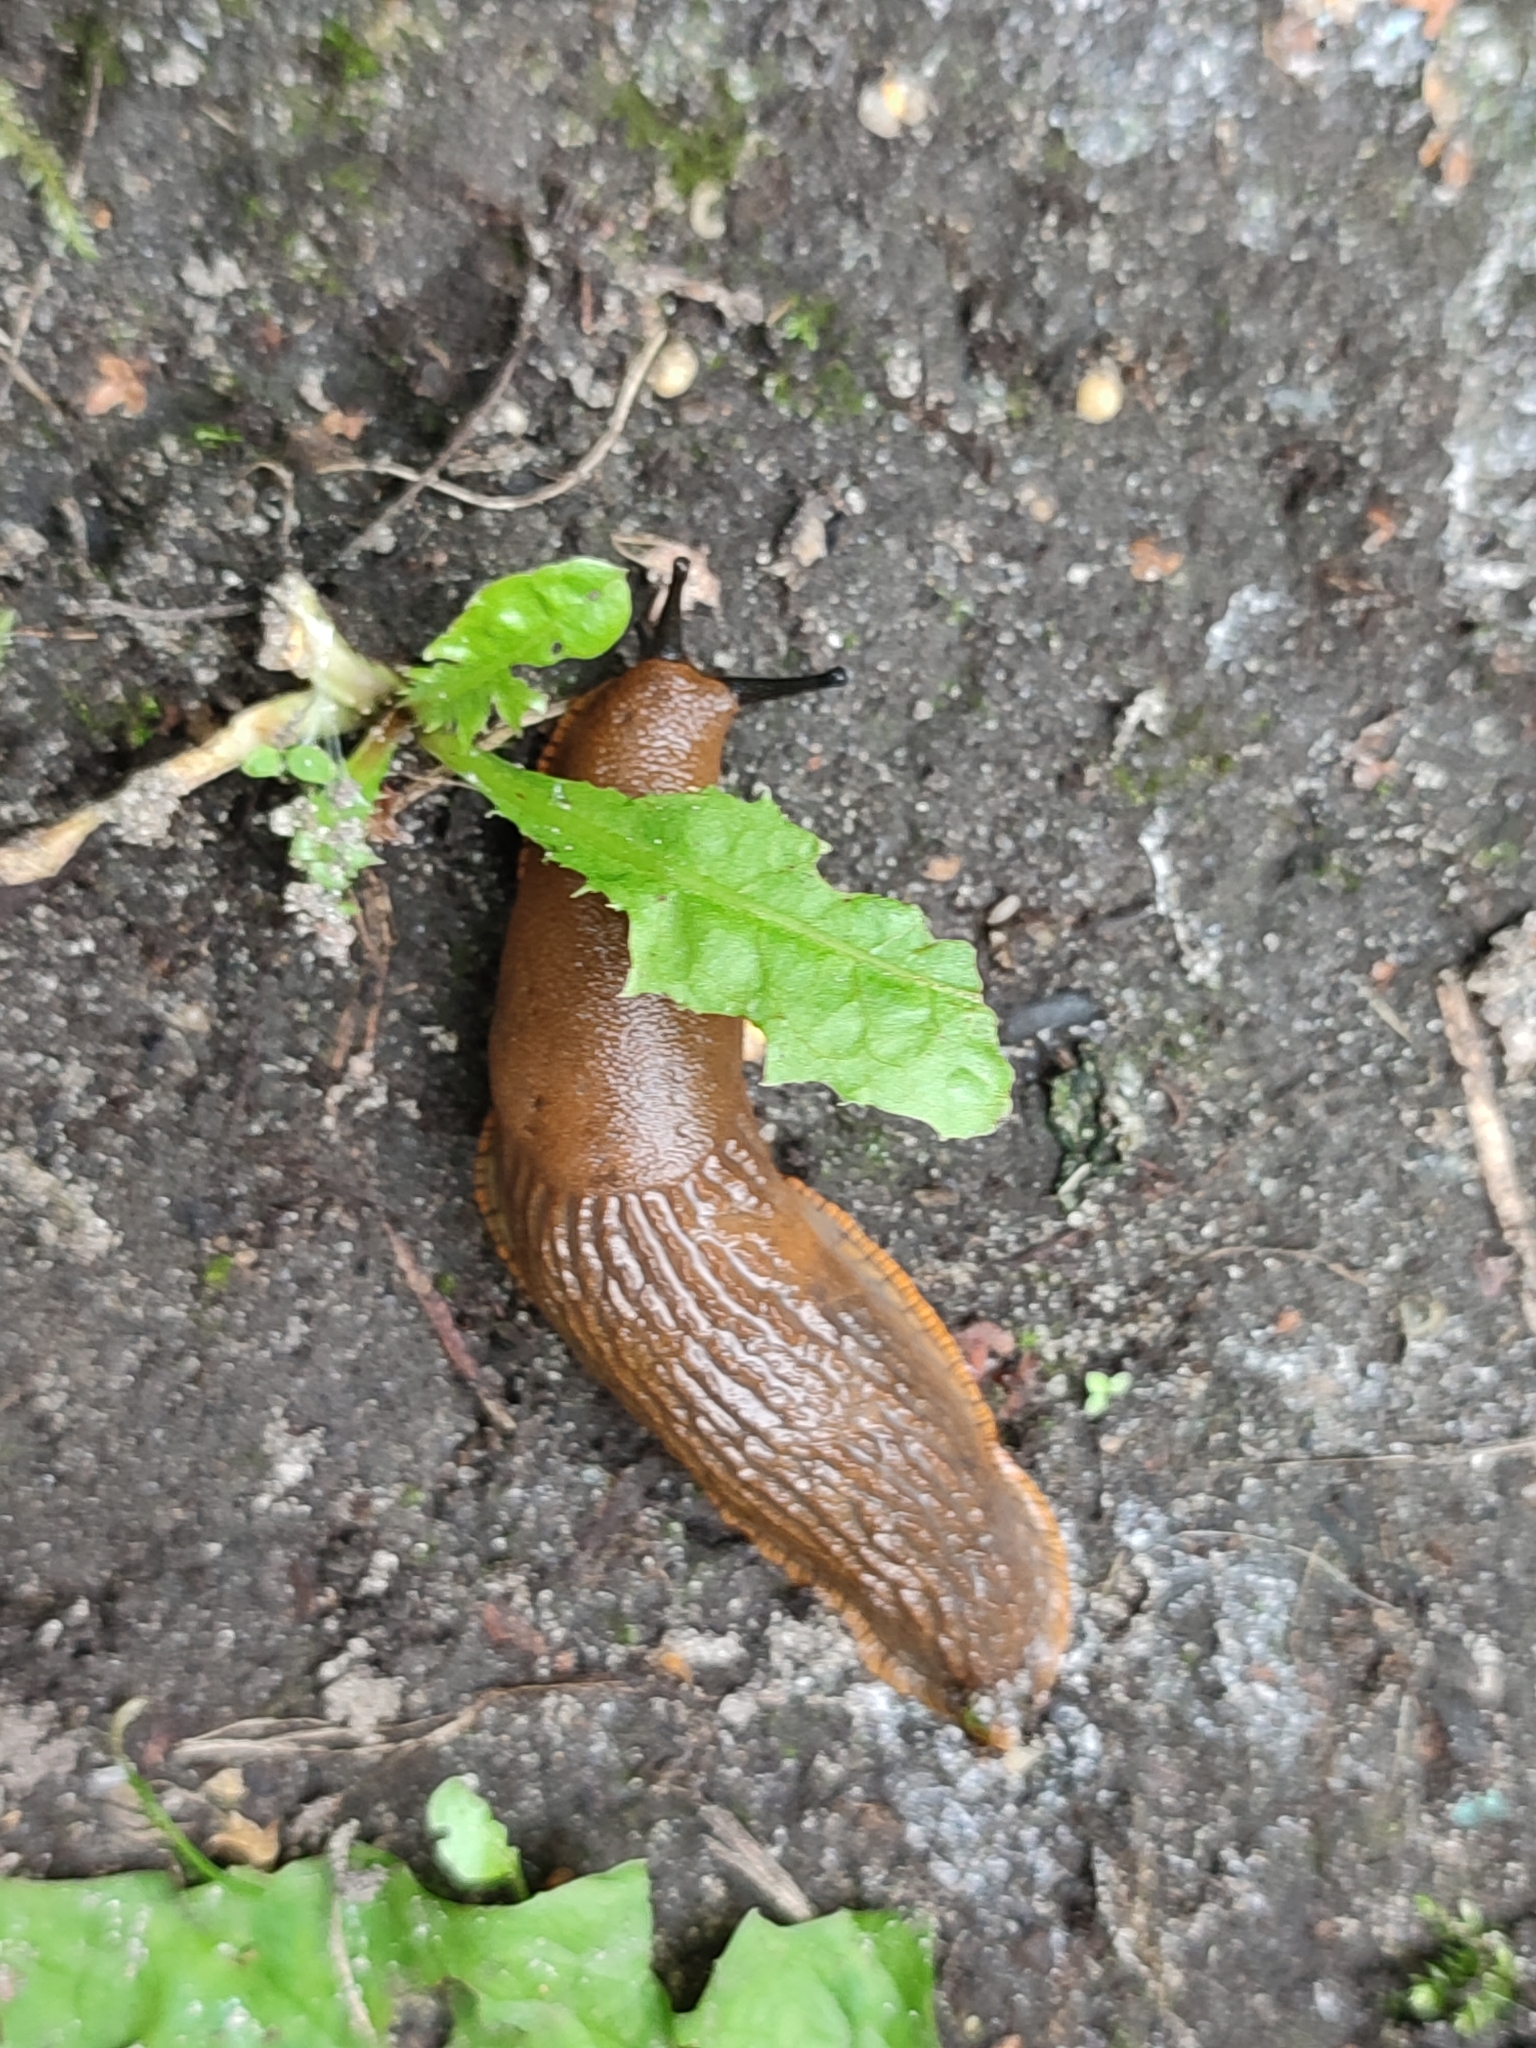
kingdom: Animalia
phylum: Mollusca
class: Gastropoda
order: Stylommatophora
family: Arionidae
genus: Arion
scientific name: Arion vulgaris
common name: Lusitanian slug
